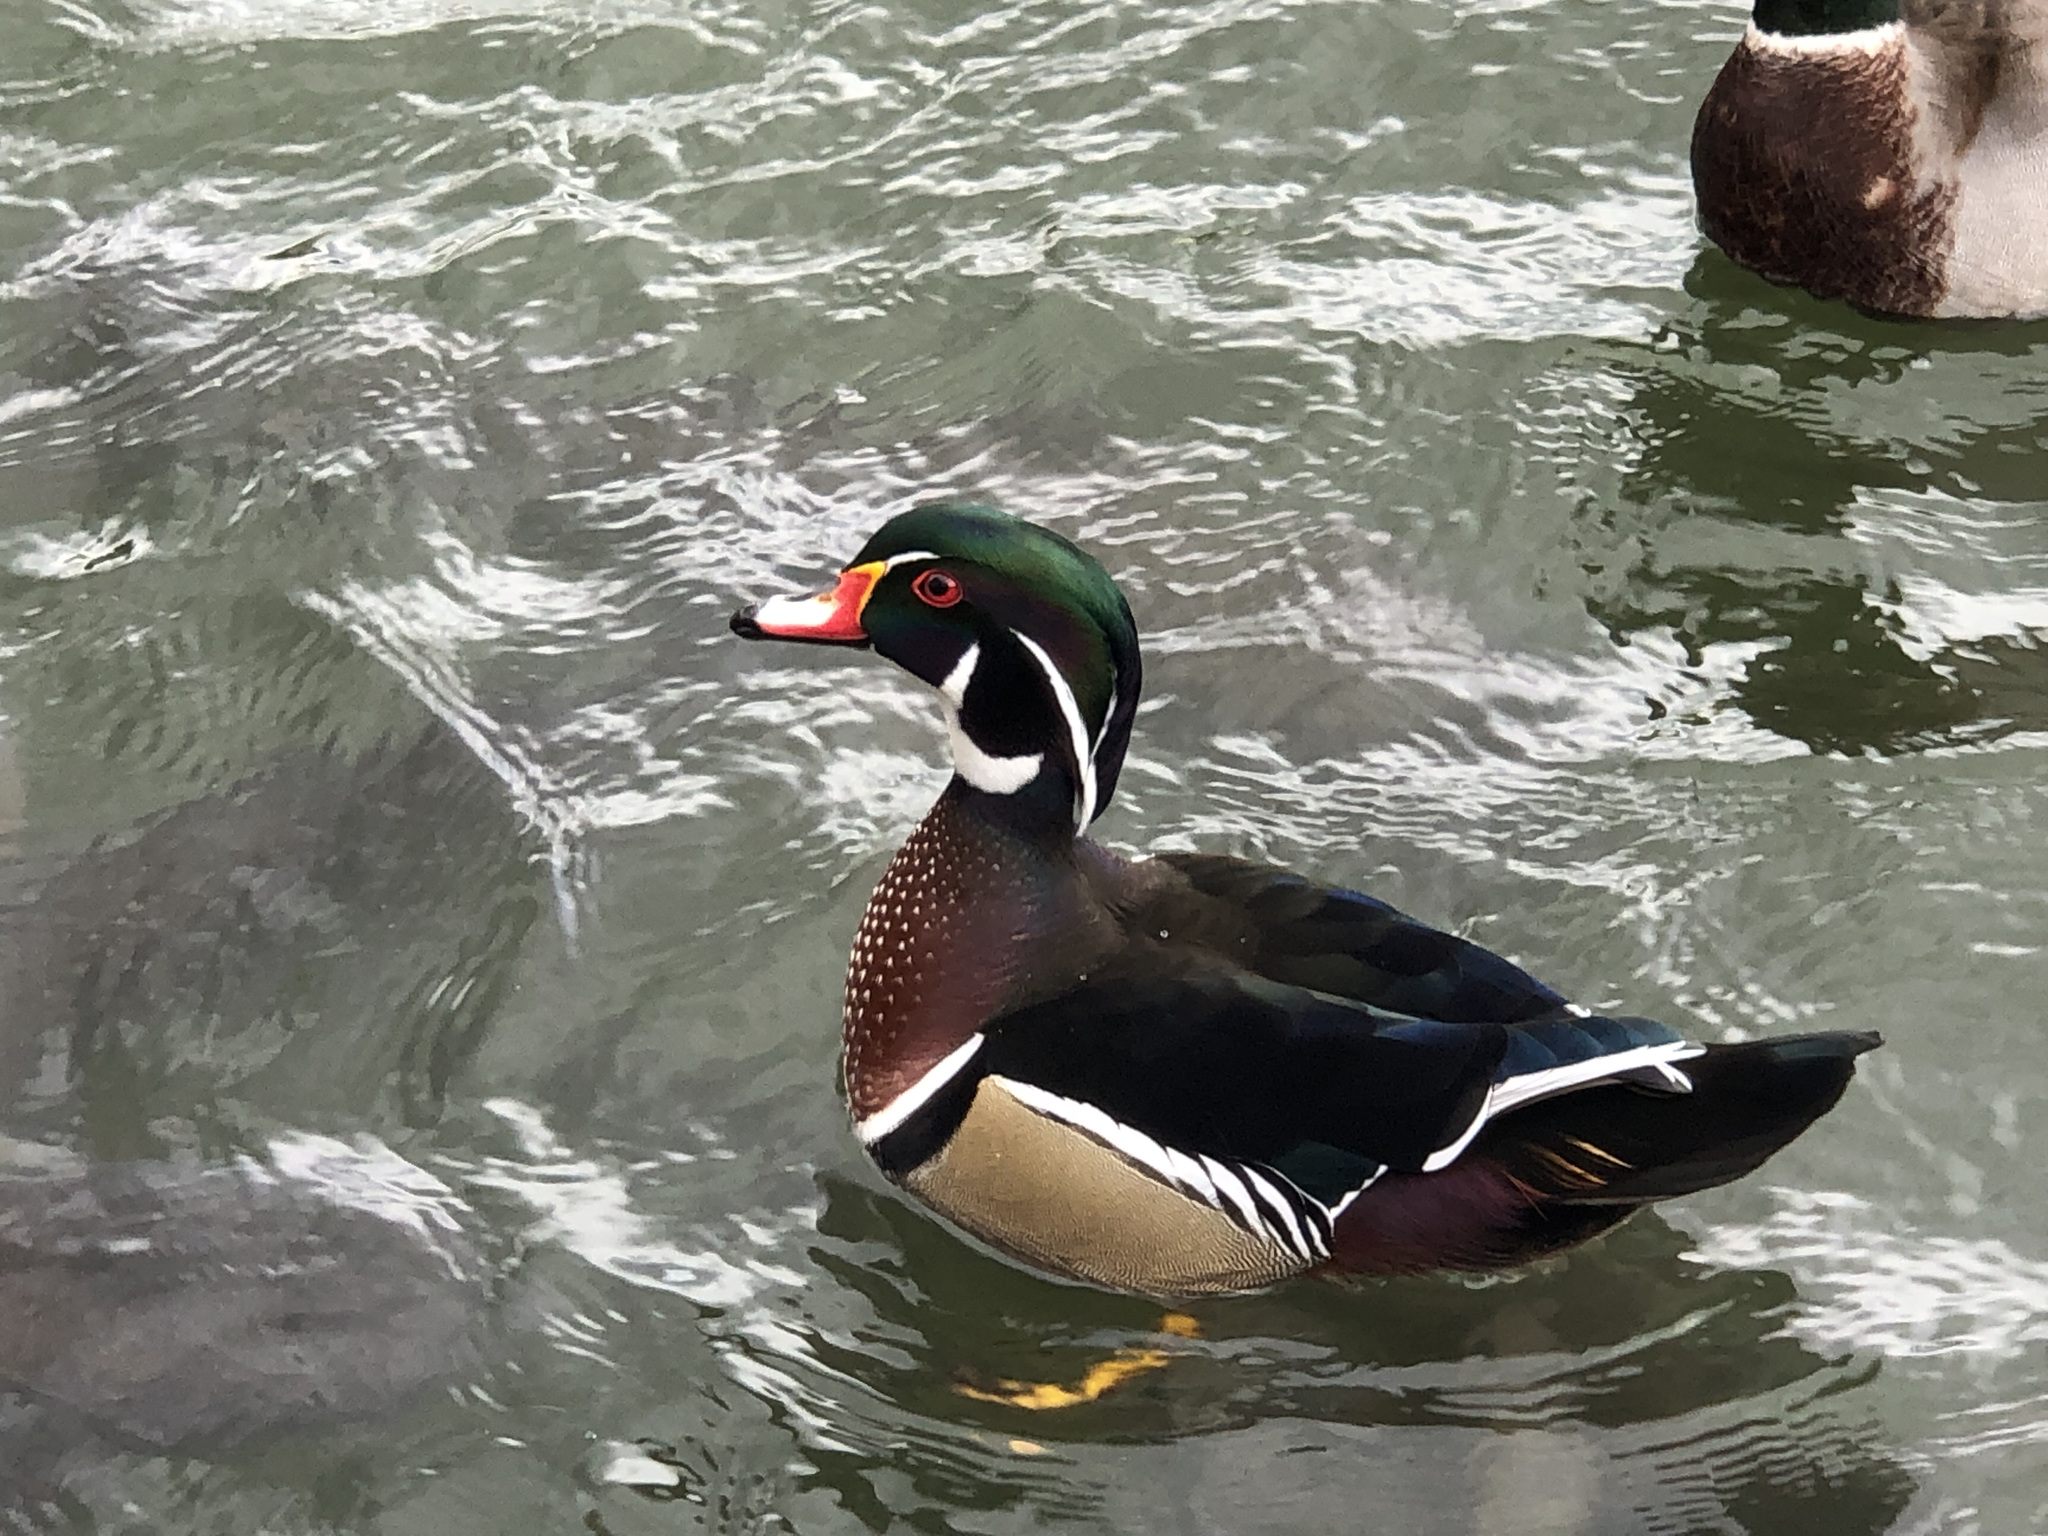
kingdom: Animalia
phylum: Chordata
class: Aves
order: Anseriformes
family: Anatidae
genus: Aix
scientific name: Aix sponsa
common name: Wood duck
